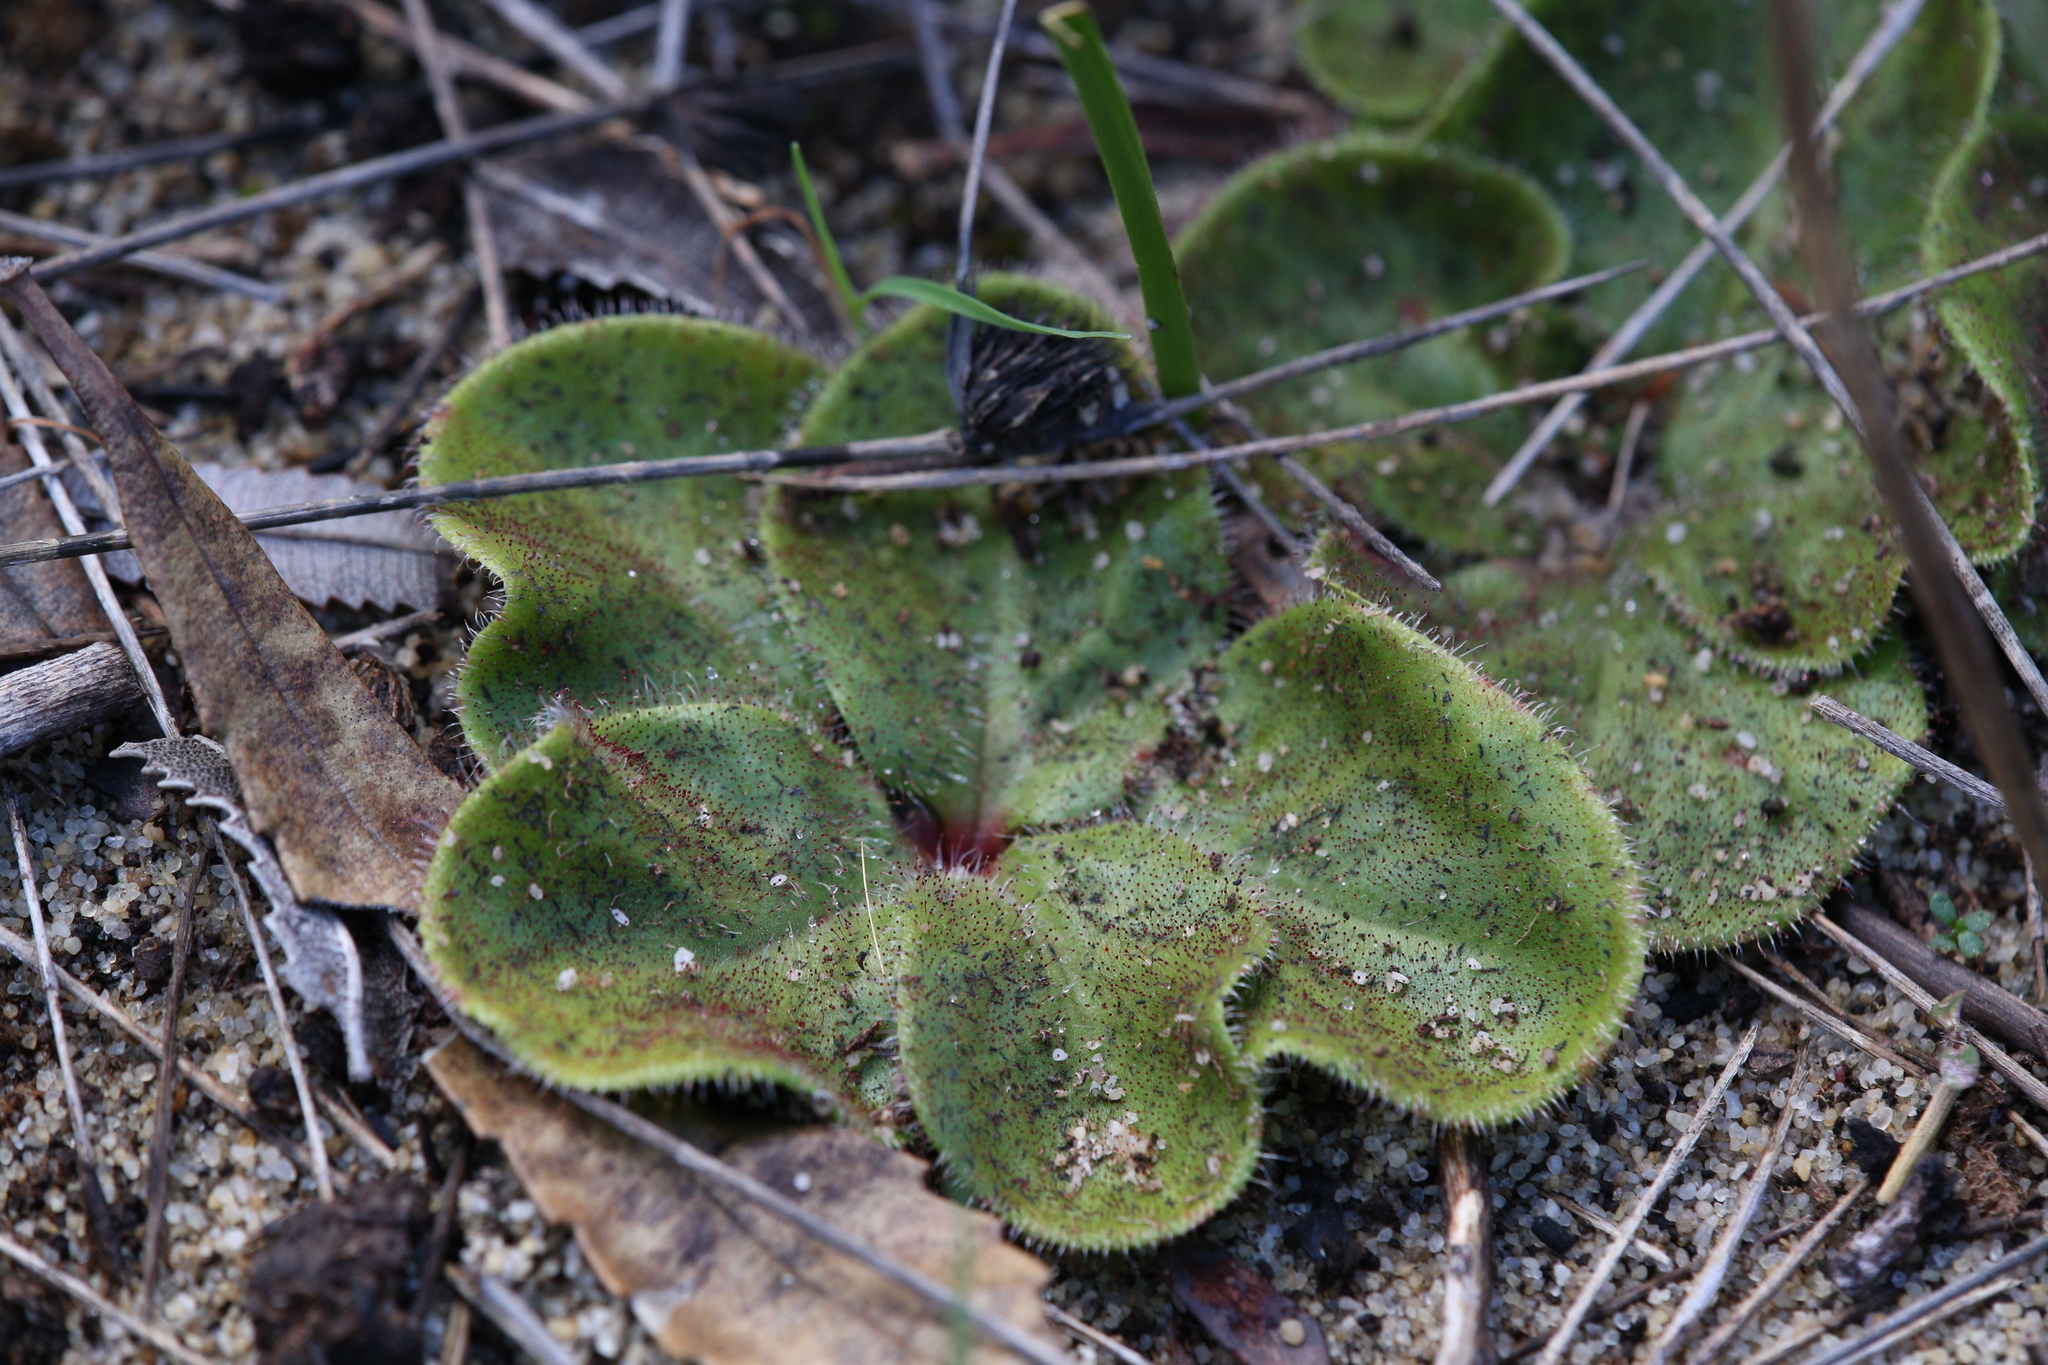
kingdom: Plantae
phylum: Tracheophyta
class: Magnoliopsida
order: Caryophyllales
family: Droseraceae
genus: Drosera
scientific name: Drosera erythrorhiza
